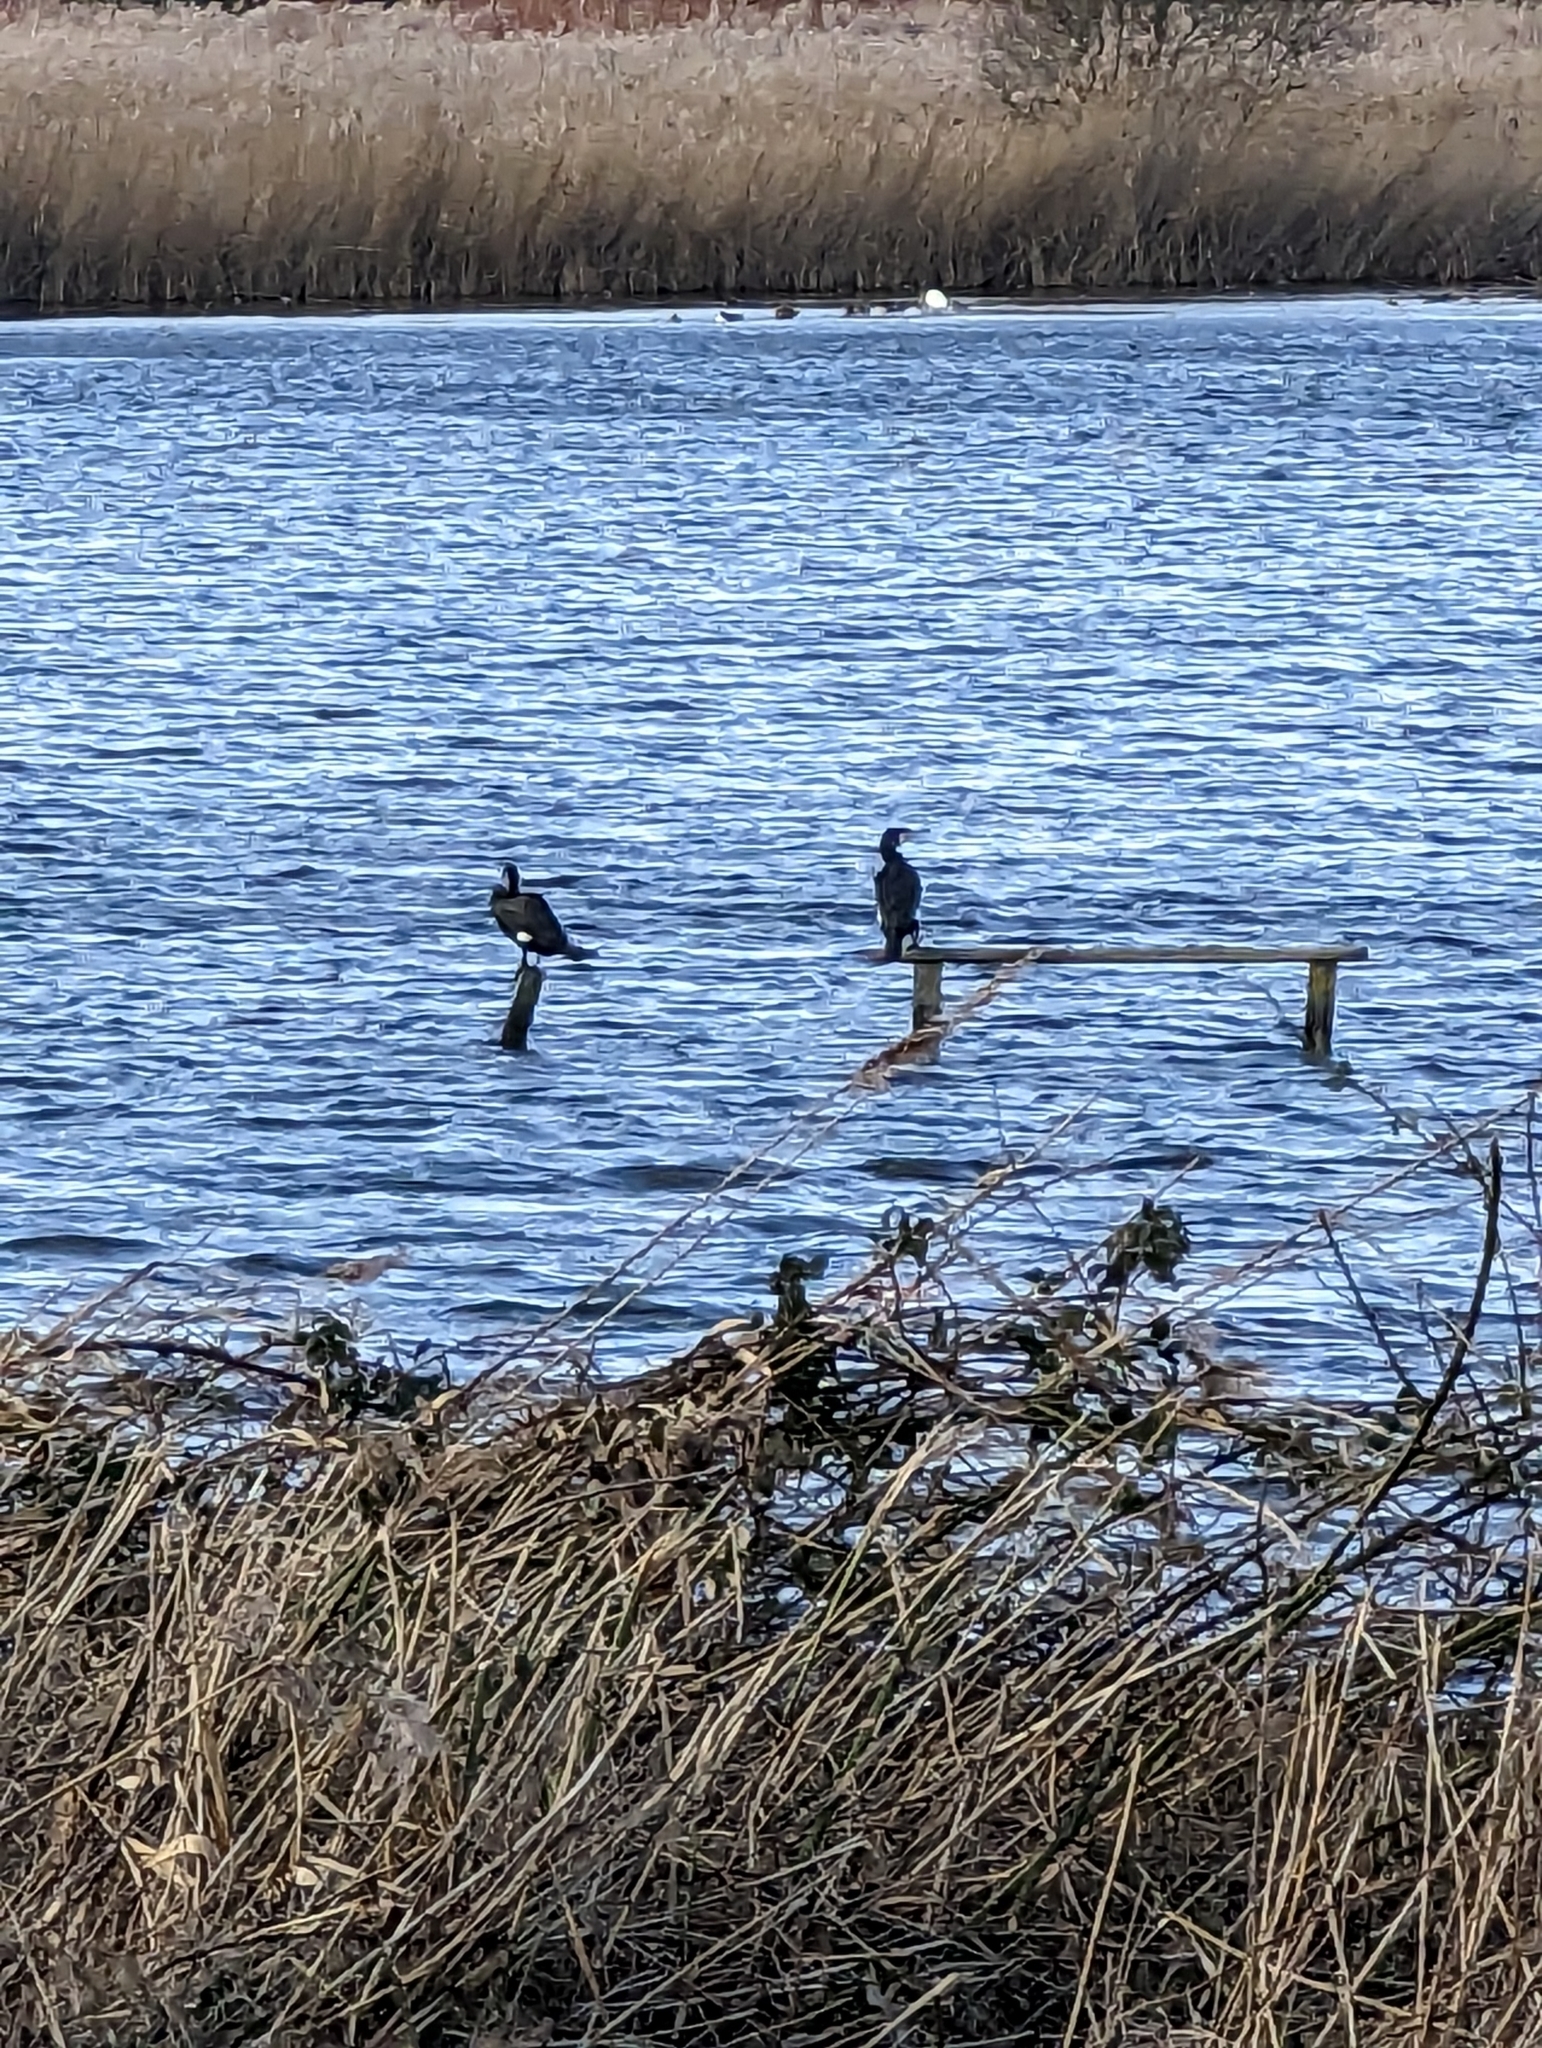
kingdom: Animalia
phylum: Chordata
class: Aves
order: Suliformes
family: Phalacrocoracidae
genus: Phalacrocorax
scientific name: Phalacrocorax carbo
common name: Great cormorant
